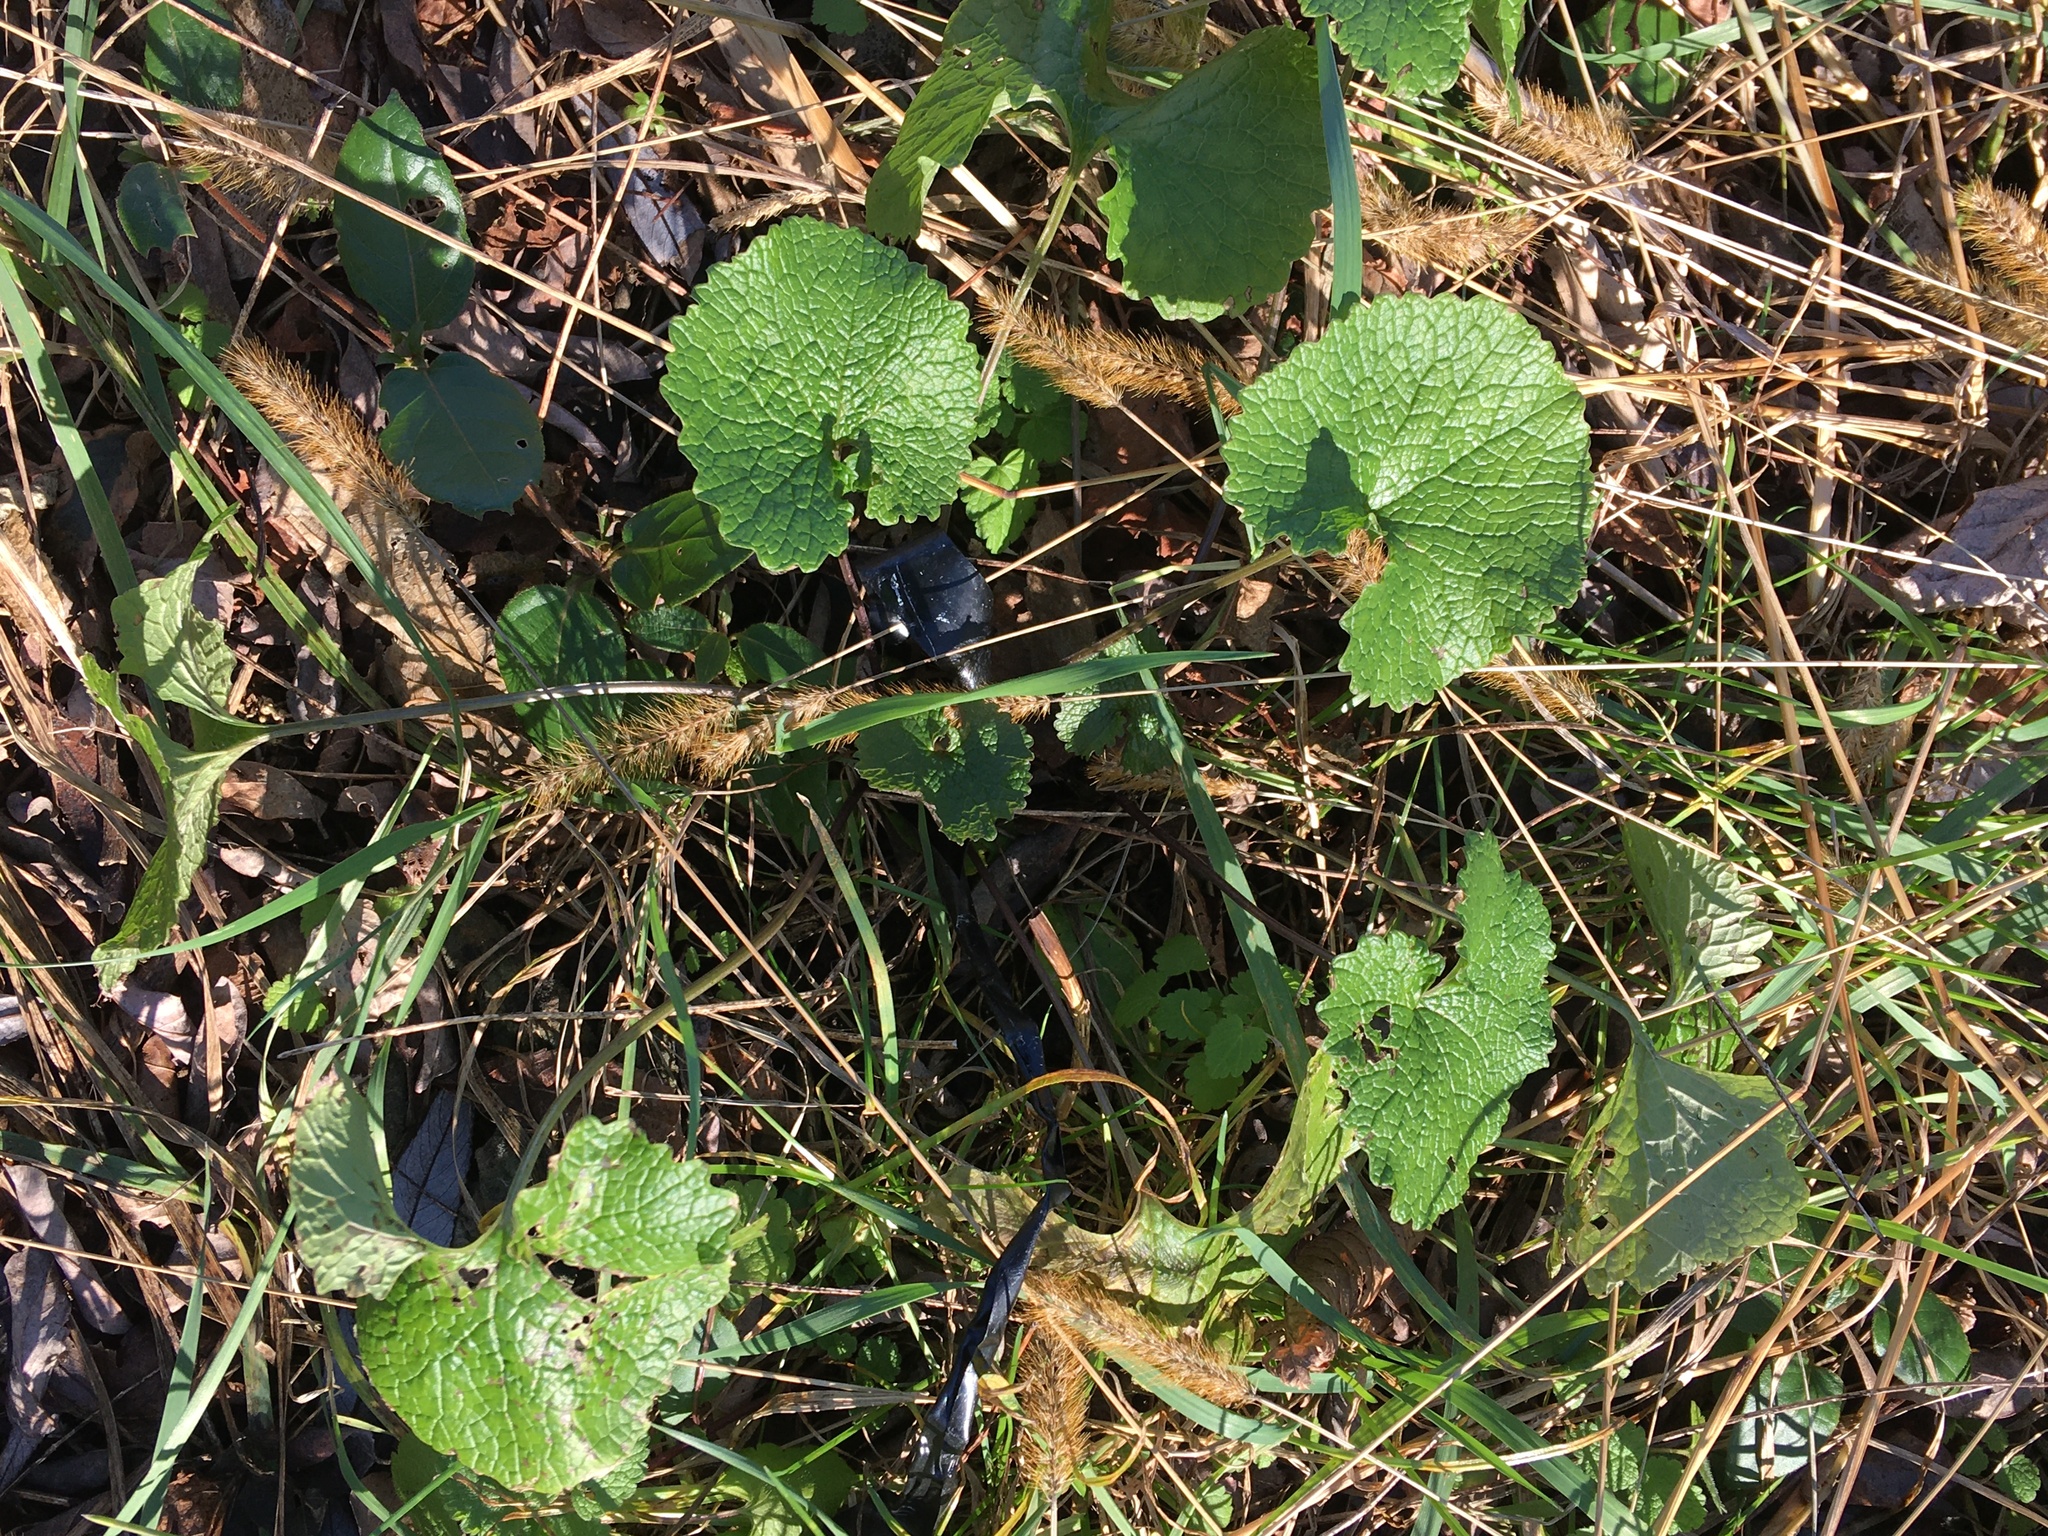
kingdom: Plantae
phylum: Tracheophyta
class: Magnoliopsida
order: Brassicales
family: Brassicaceae
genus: Alliaria
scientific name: Alliaria petiolata
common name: Garlic mustard
